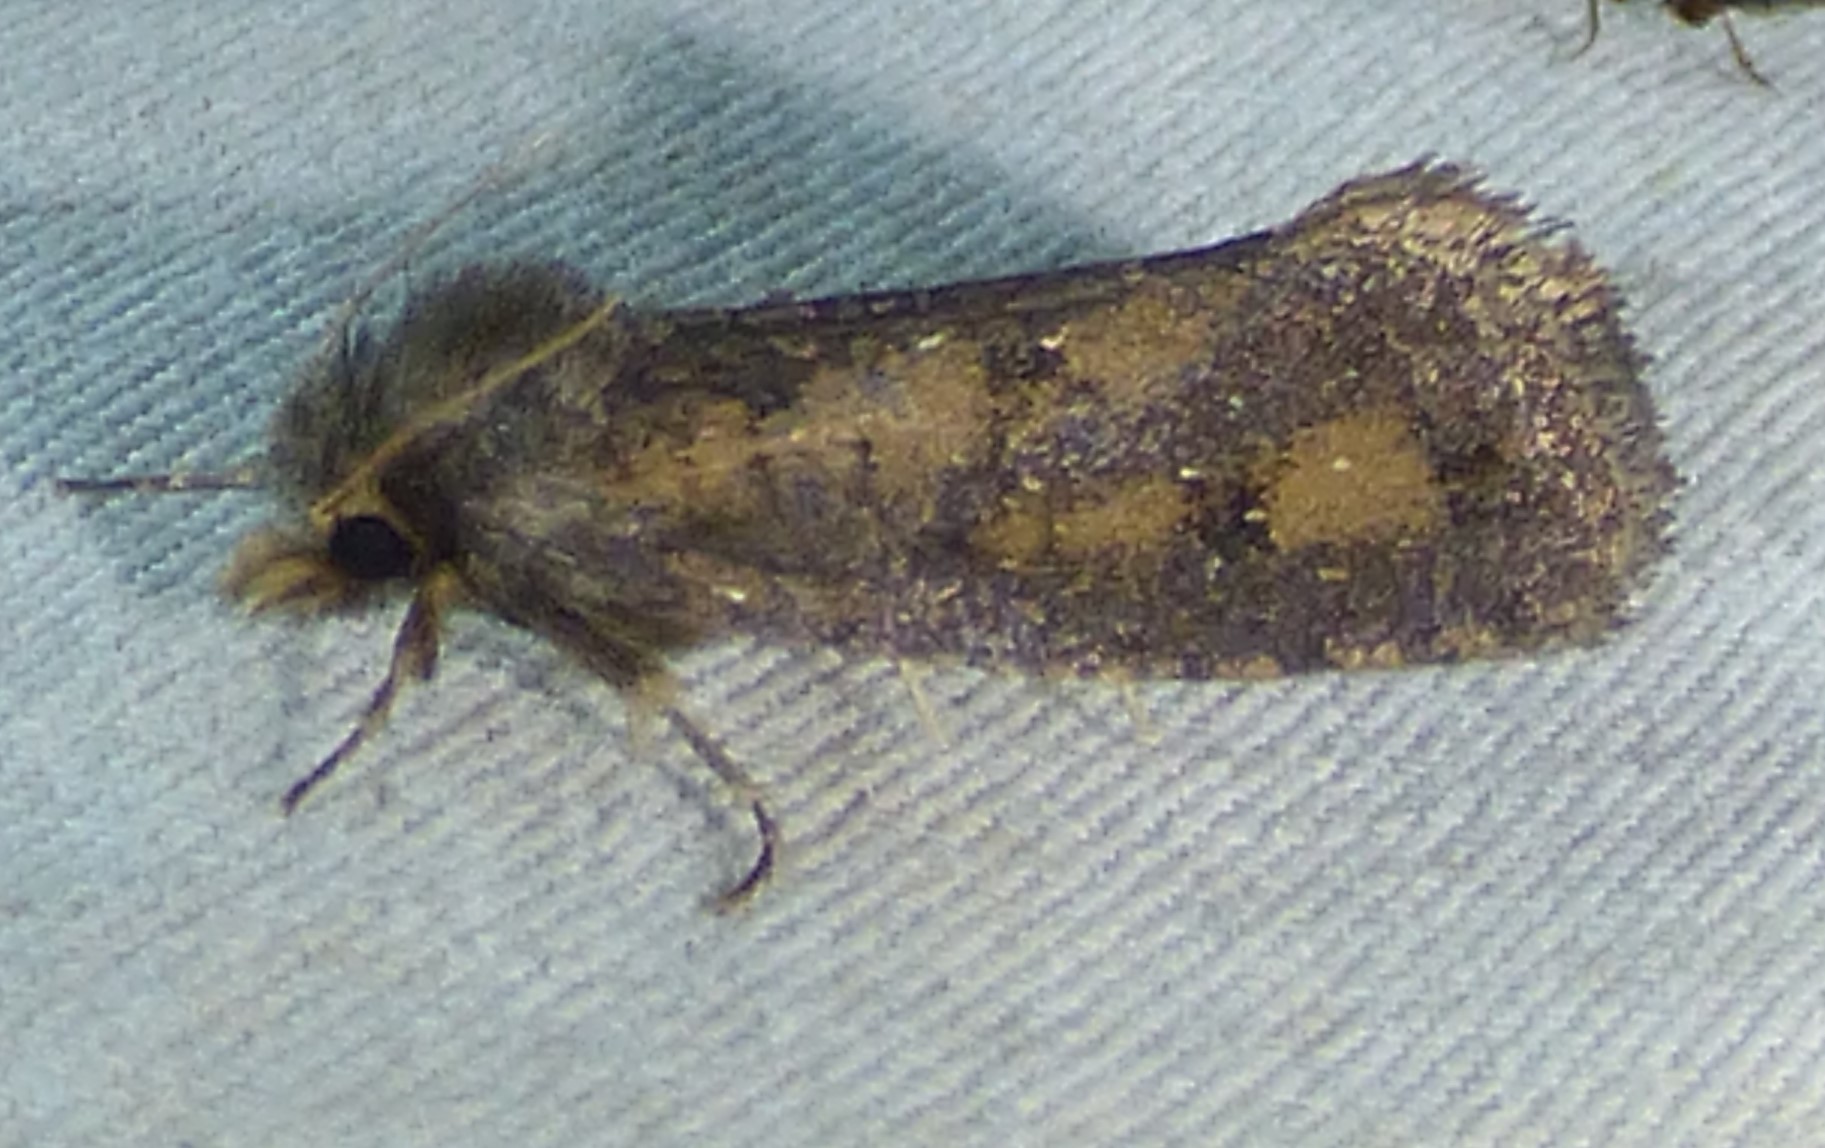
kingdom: Animalia
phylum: Arthropoda
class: Insecta
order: Lepidoptera
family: Tineidae
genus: Acrolophus
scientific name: Acrolophus popeanella
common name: Clemens' grass tubeworm moth
